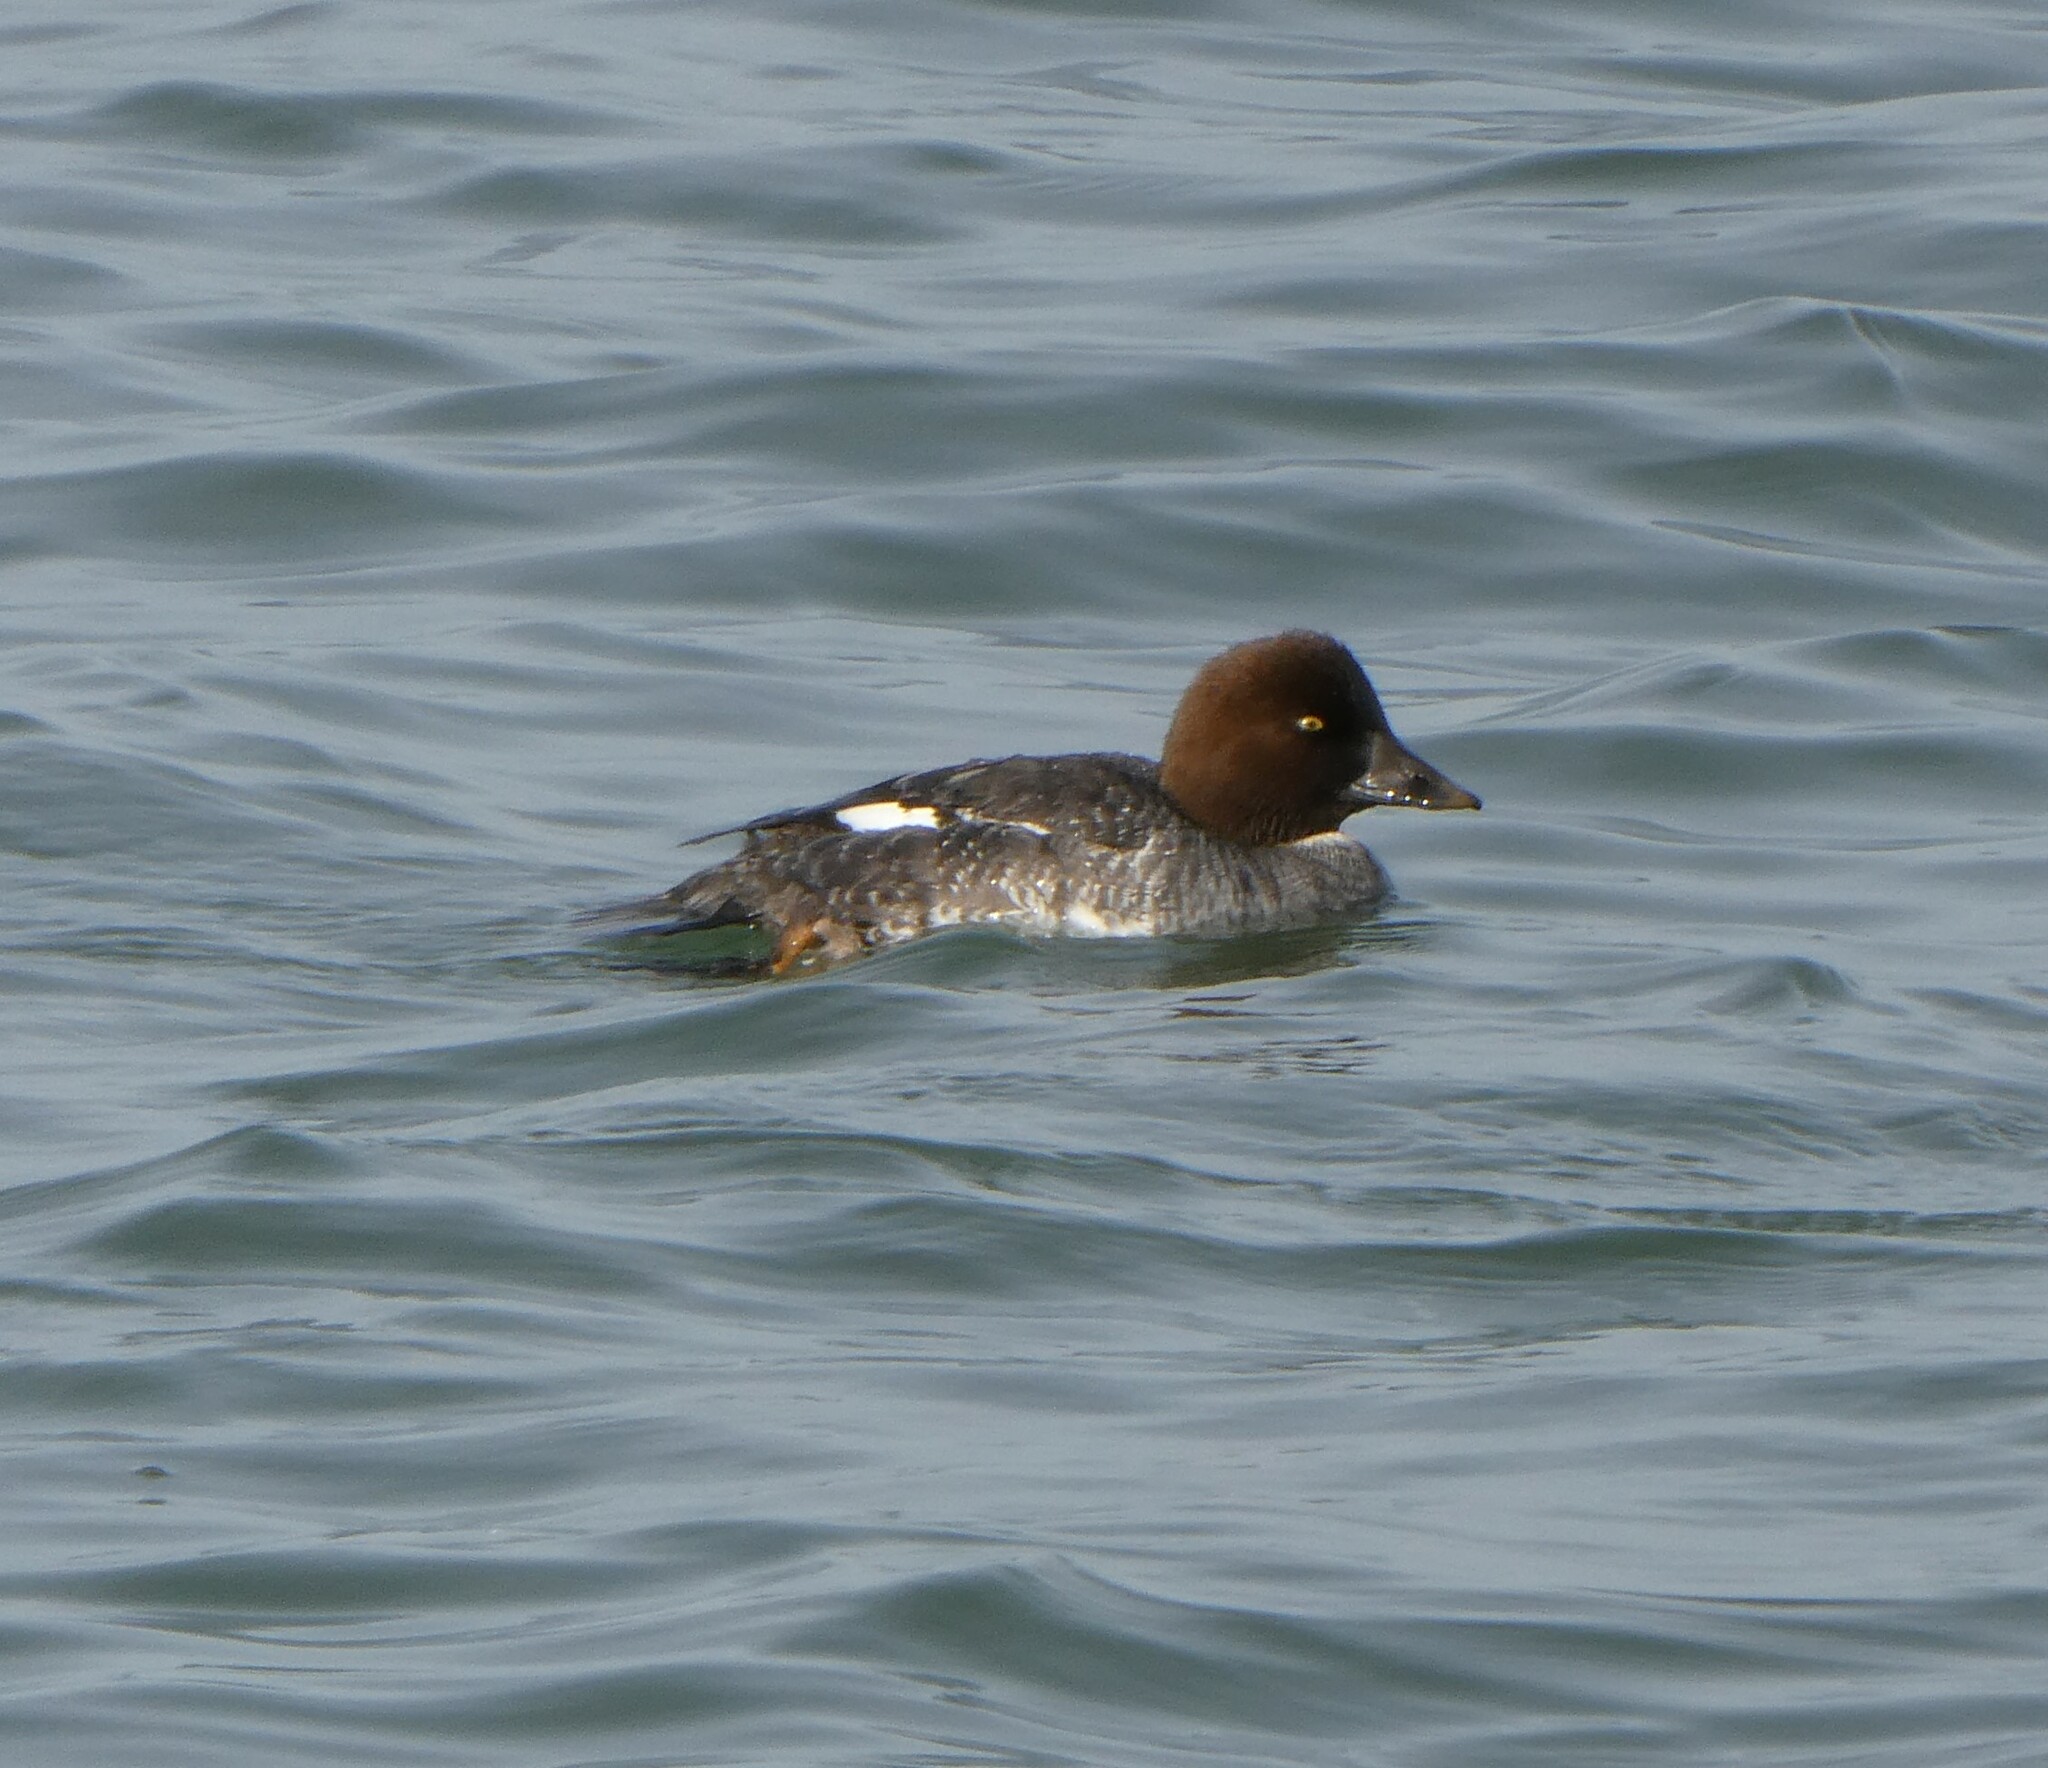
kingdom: Animalia
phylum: Chordata
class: Aves
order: Anseriformes
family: Anatidae
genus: Bucephala
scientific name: Bucephala clangula
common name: Common goldeneye
